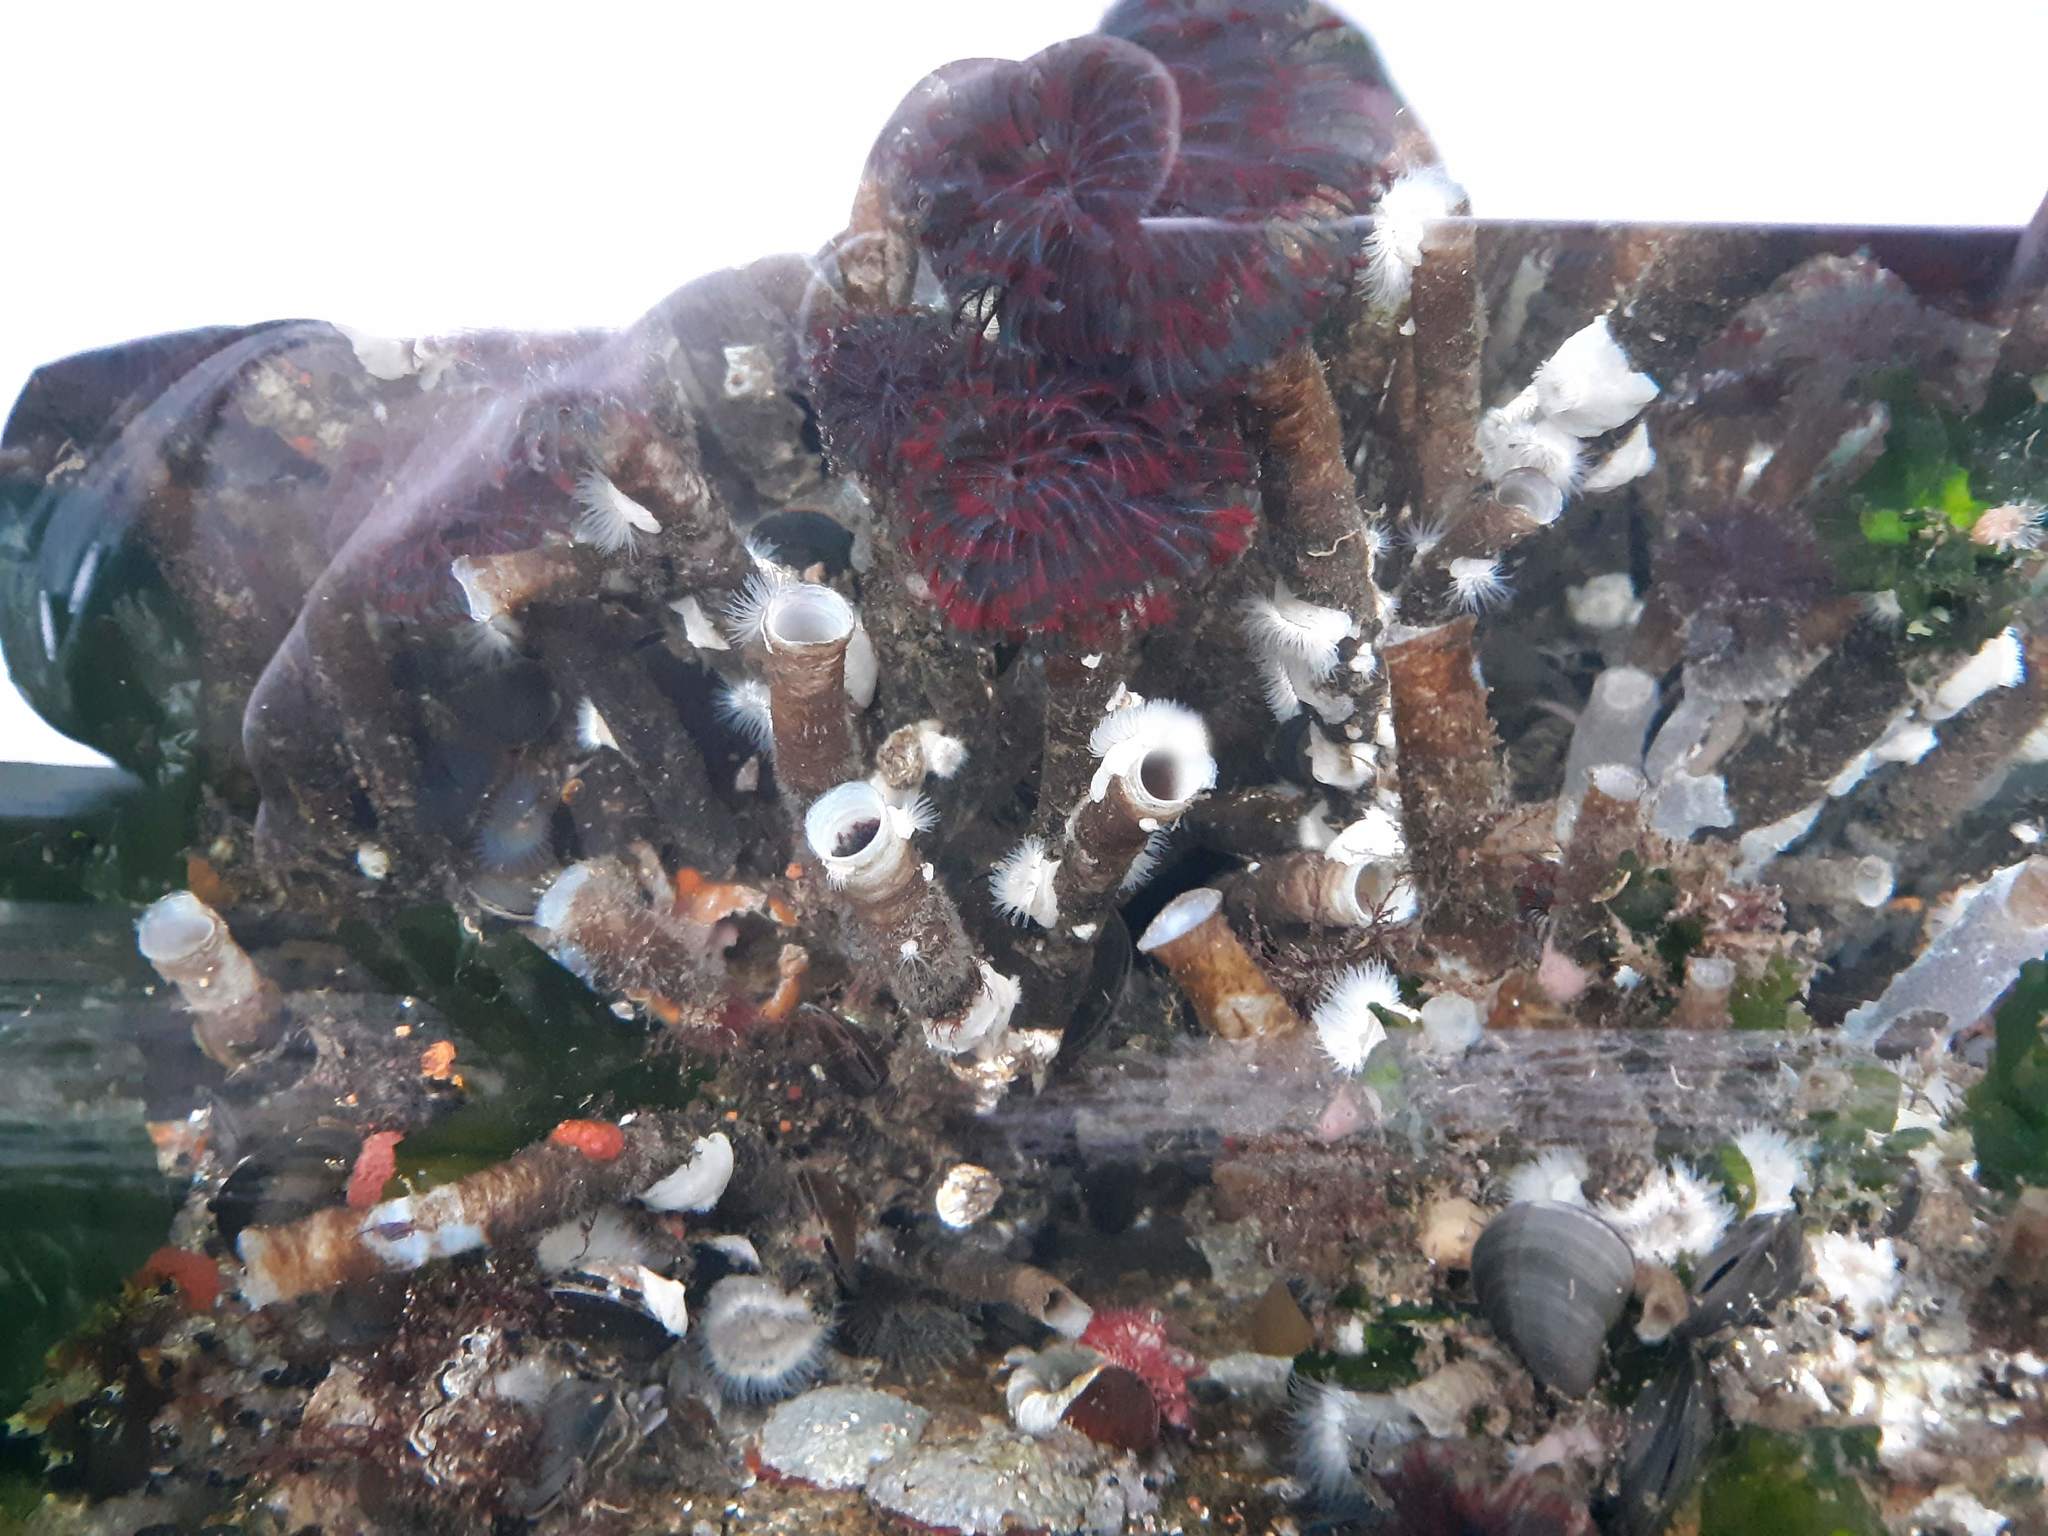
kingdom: Animalia
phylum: Annelida
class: Polychaeta
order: Sabellida
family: Sabellidae
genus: Eudistylia
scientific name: Eudistylia vancouveri
